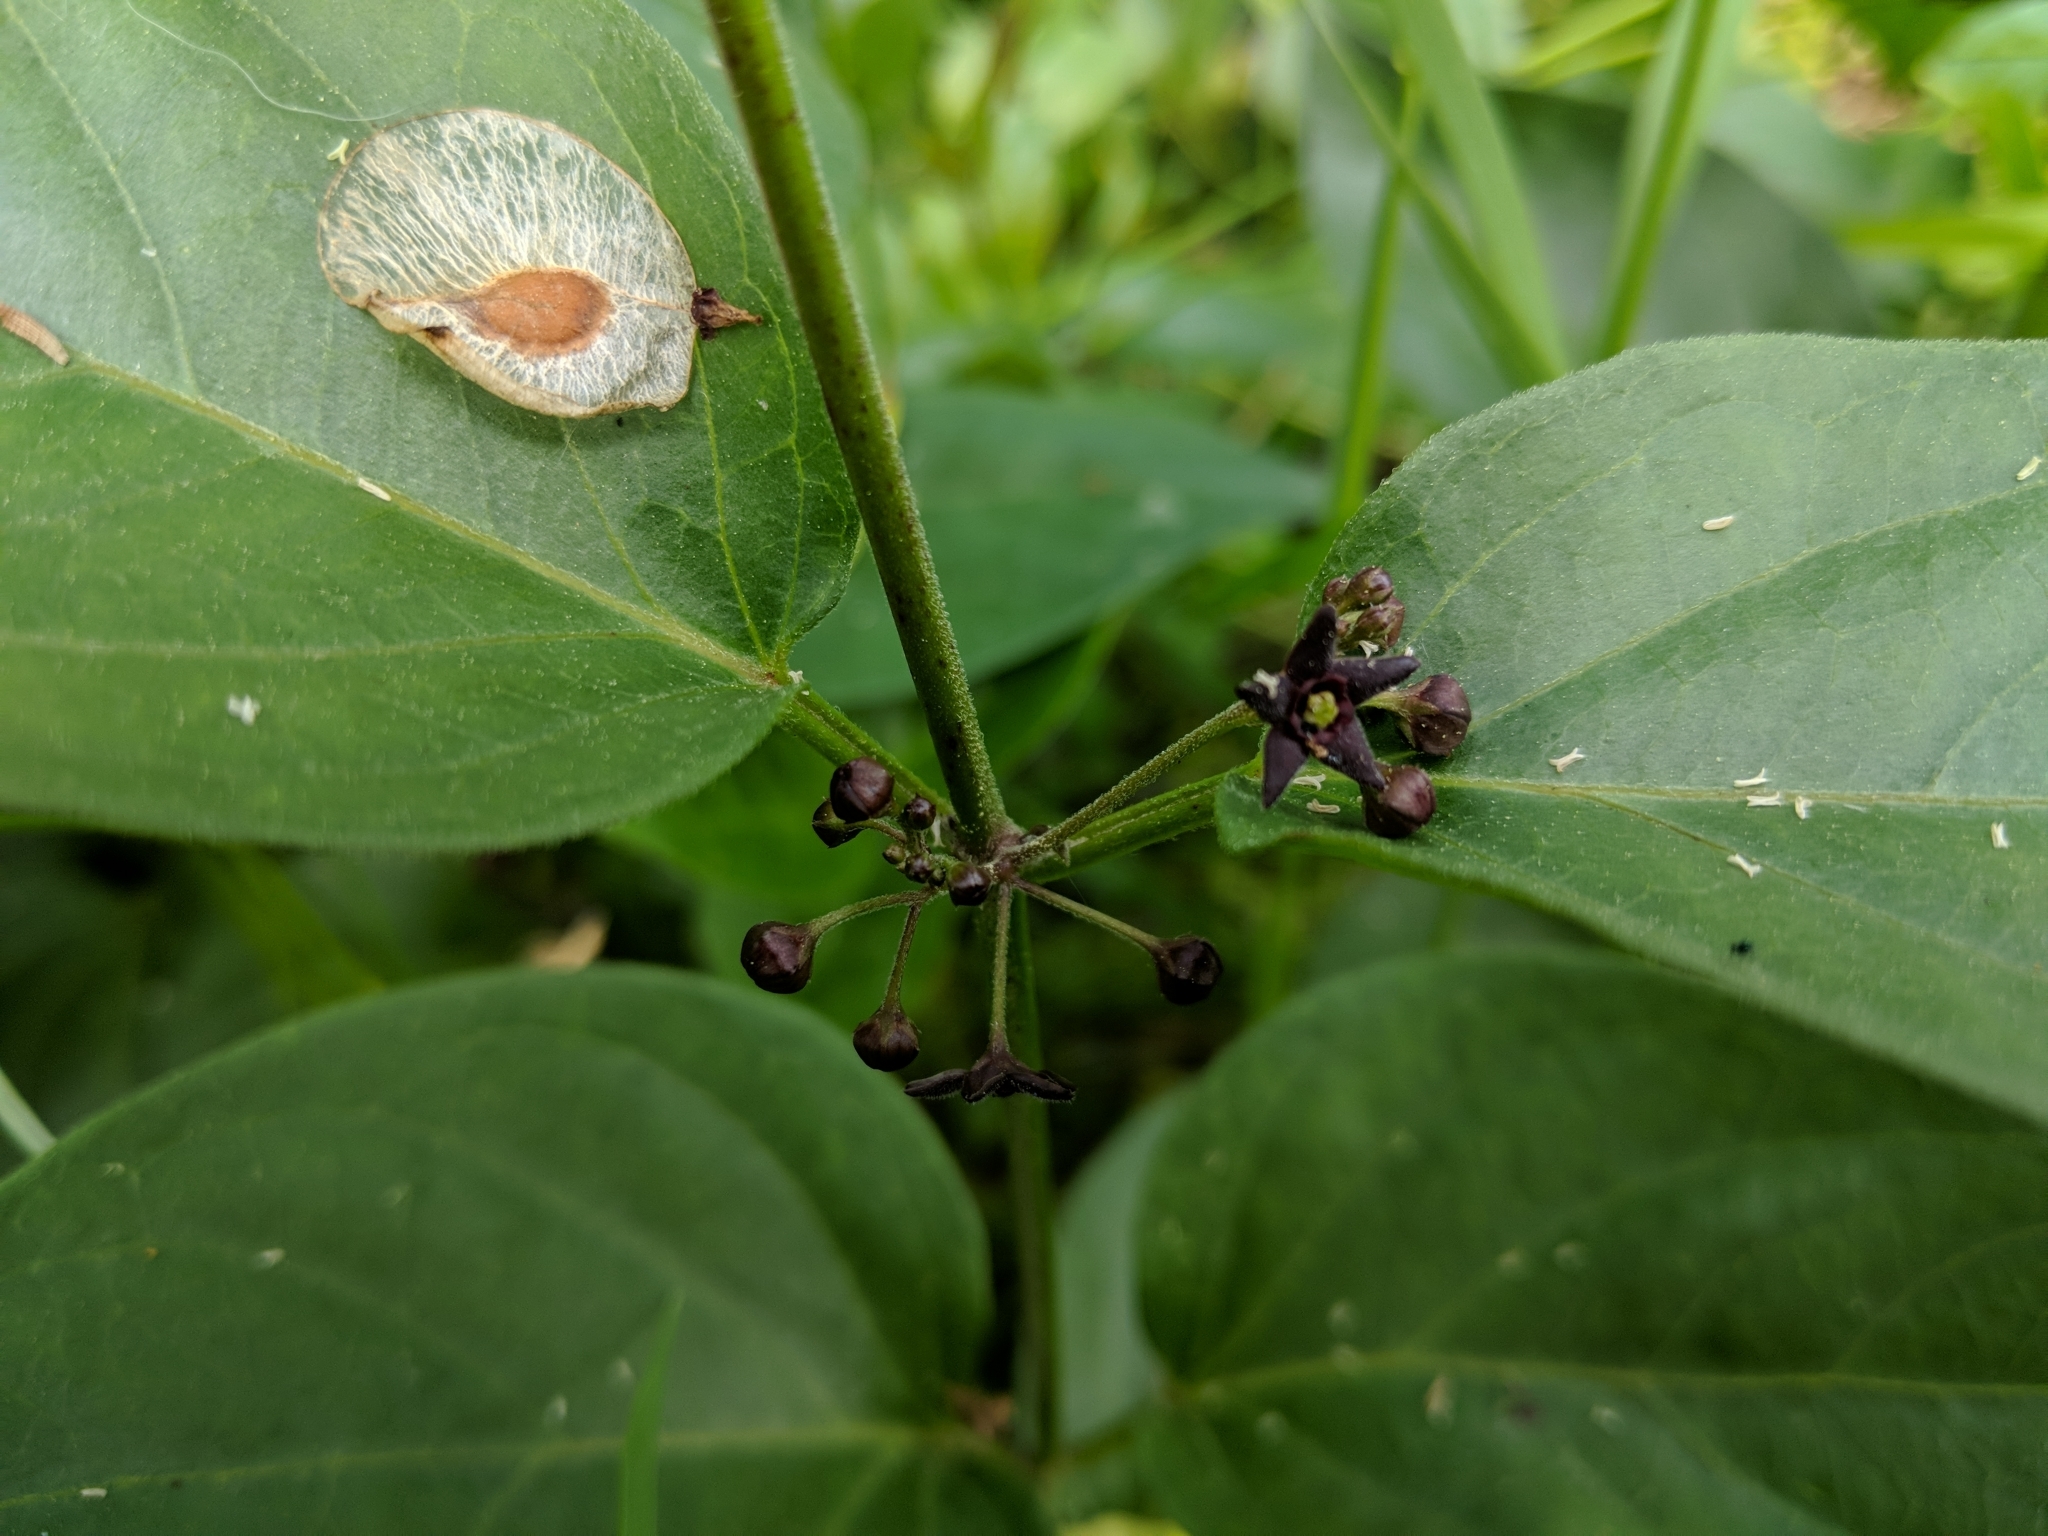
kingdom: Plantae
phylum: Tracheophyta
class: Magnoliopsida
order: Gentianales
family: Apocynaceae
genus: Vincetoxicum
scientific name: Vincetoxicum nigrum
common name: Black swallow-wort
